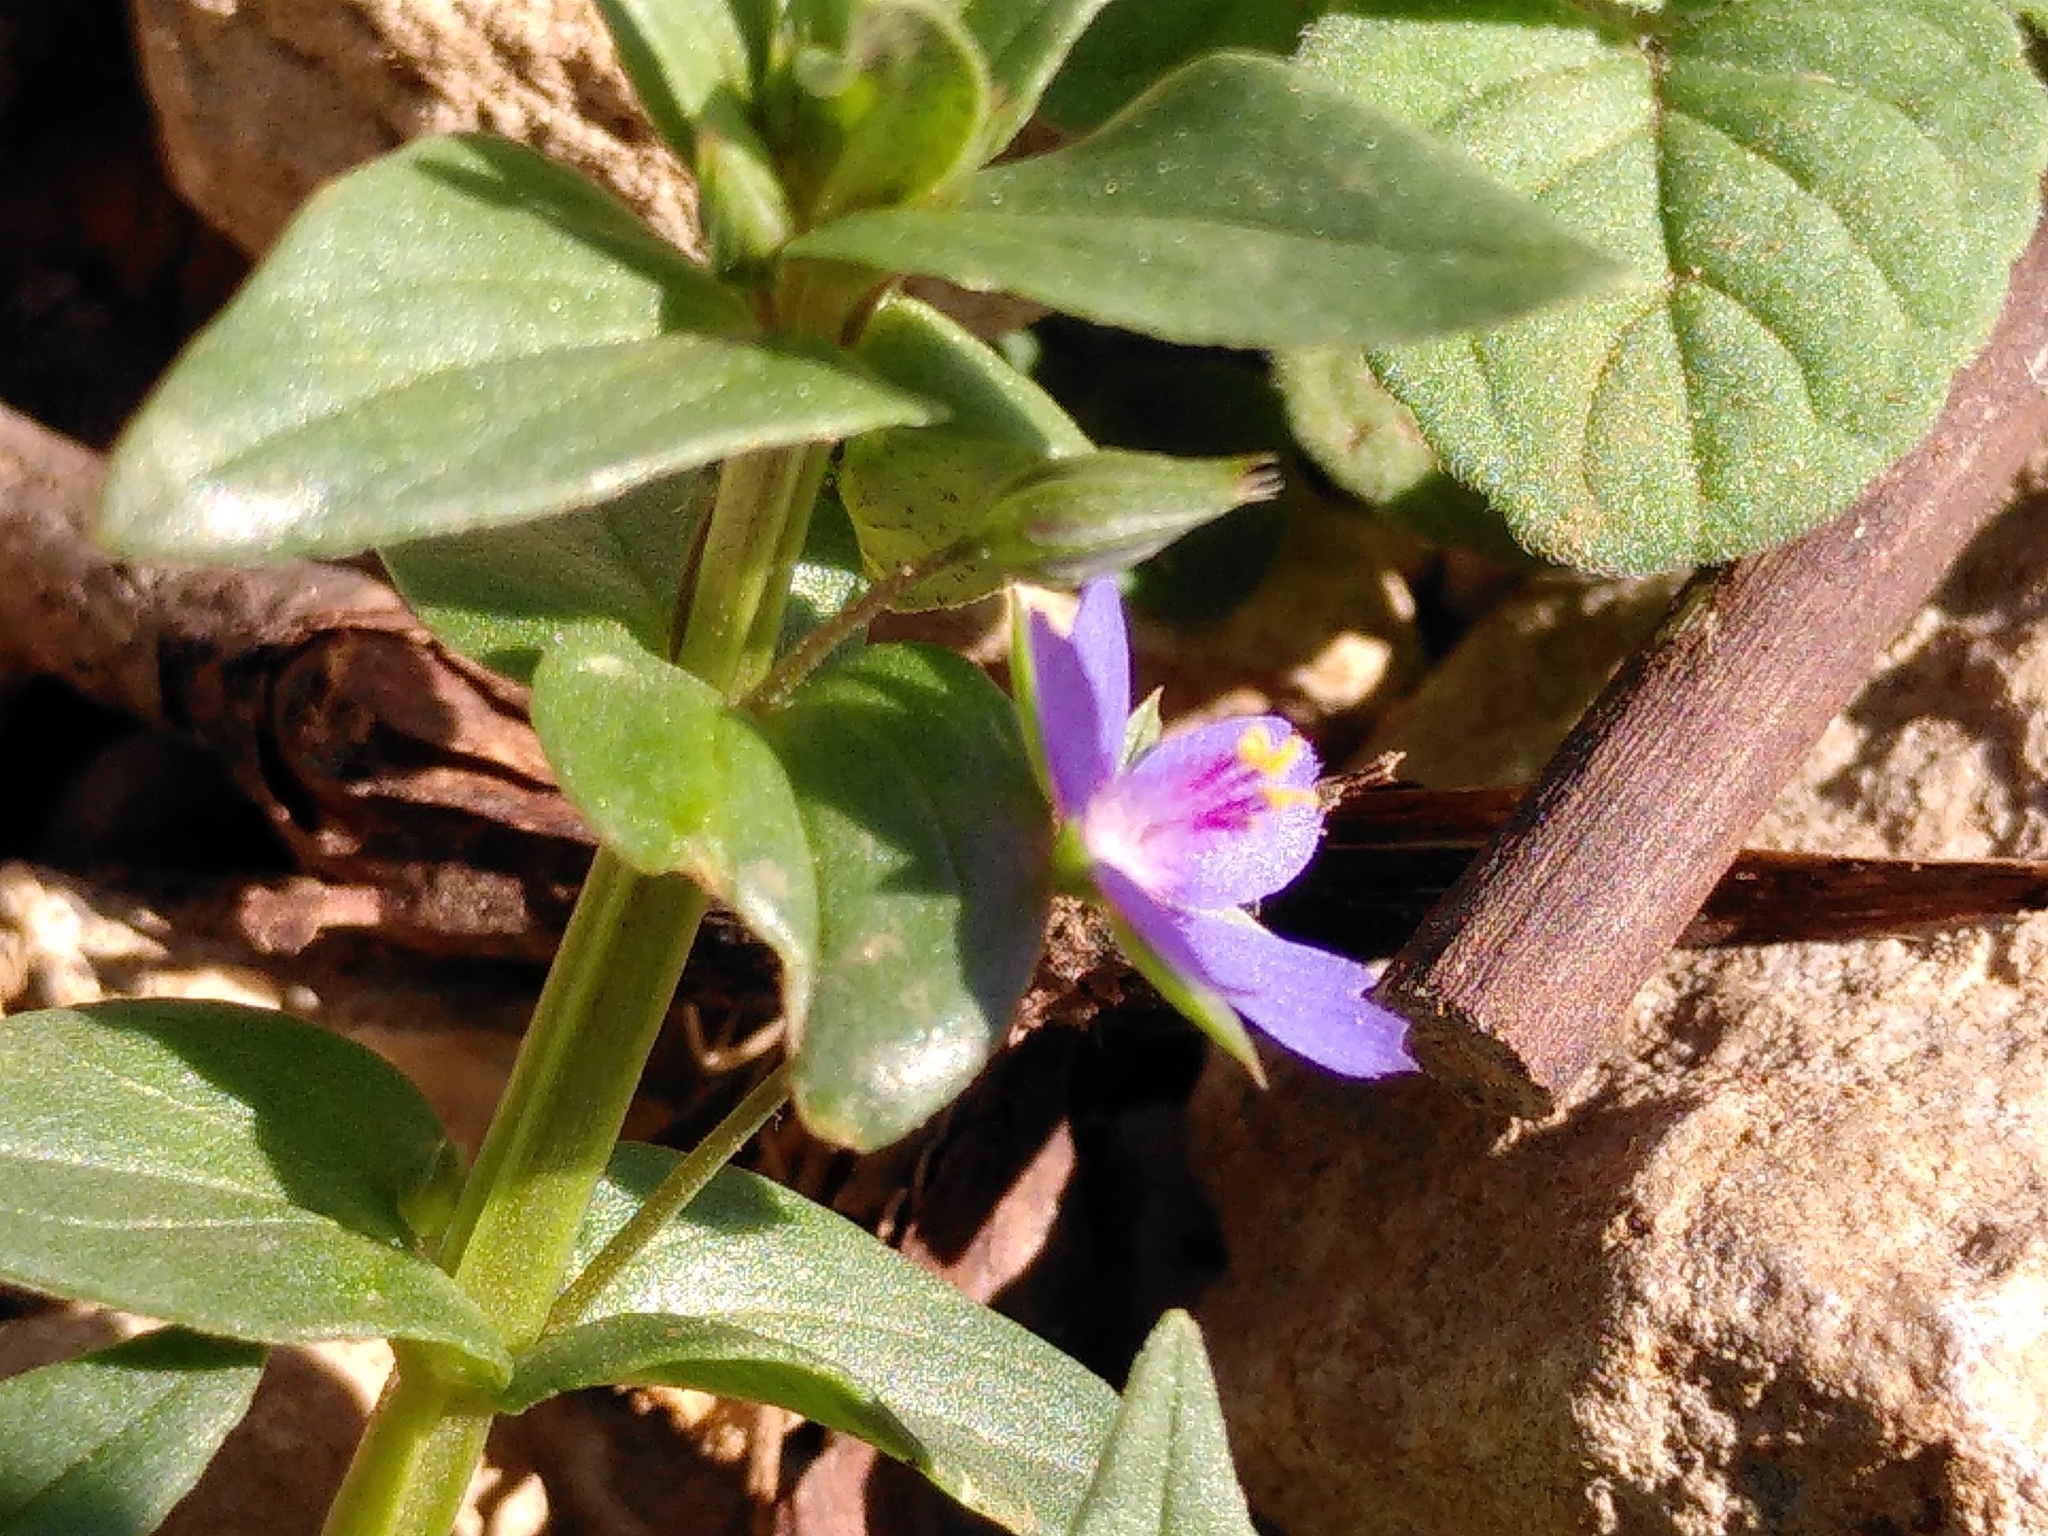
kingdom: Plantae
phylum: Tracheophyta
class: Magnoliopsida
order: Ericales
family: Primulaceae
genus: Lysimachia
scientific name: Lysimachia loeflingii
